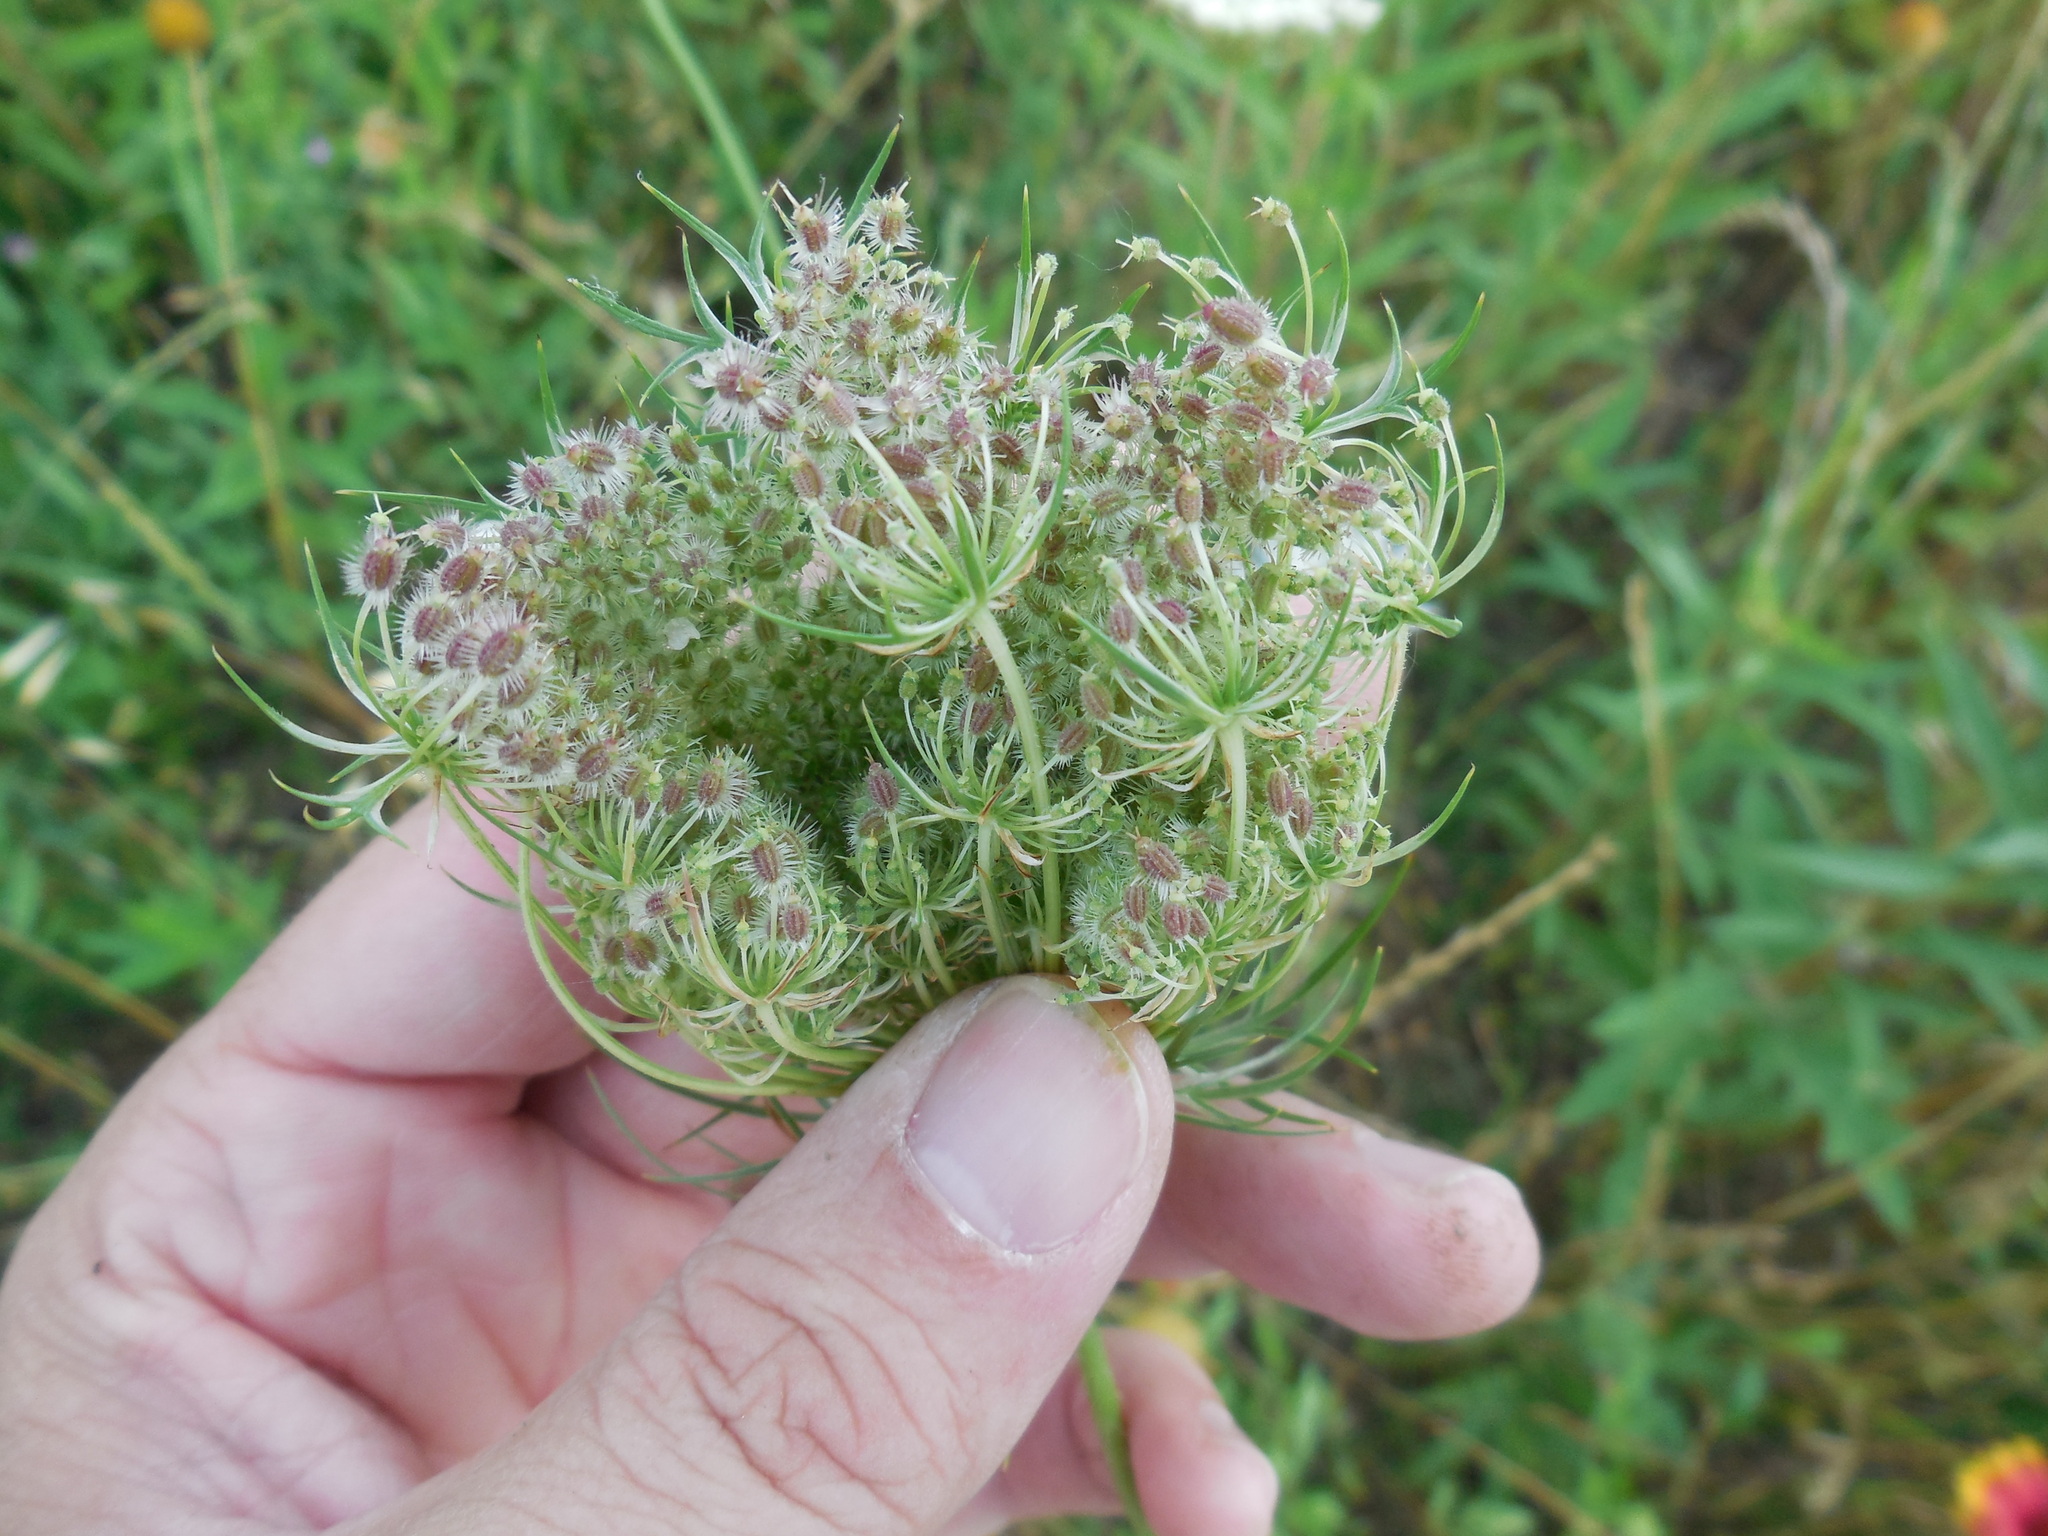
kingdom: Plantae
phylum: Tracheophyta
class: Magnoliopsida
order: Apiales
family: Apiaceae
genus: Daucus
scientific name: Daucus carota
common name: Wild carrot
